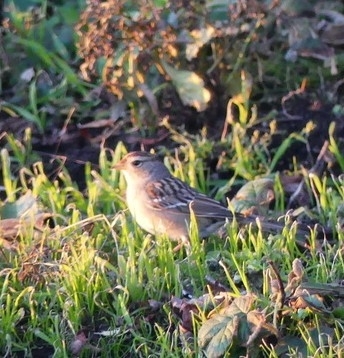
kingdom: Animalia
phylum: Chordata
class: Aves
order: Passeriformes
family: Passerellidae
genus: Zonotrichia
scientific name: Zonotrichia leucophrys
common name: White-crowned sparrow
